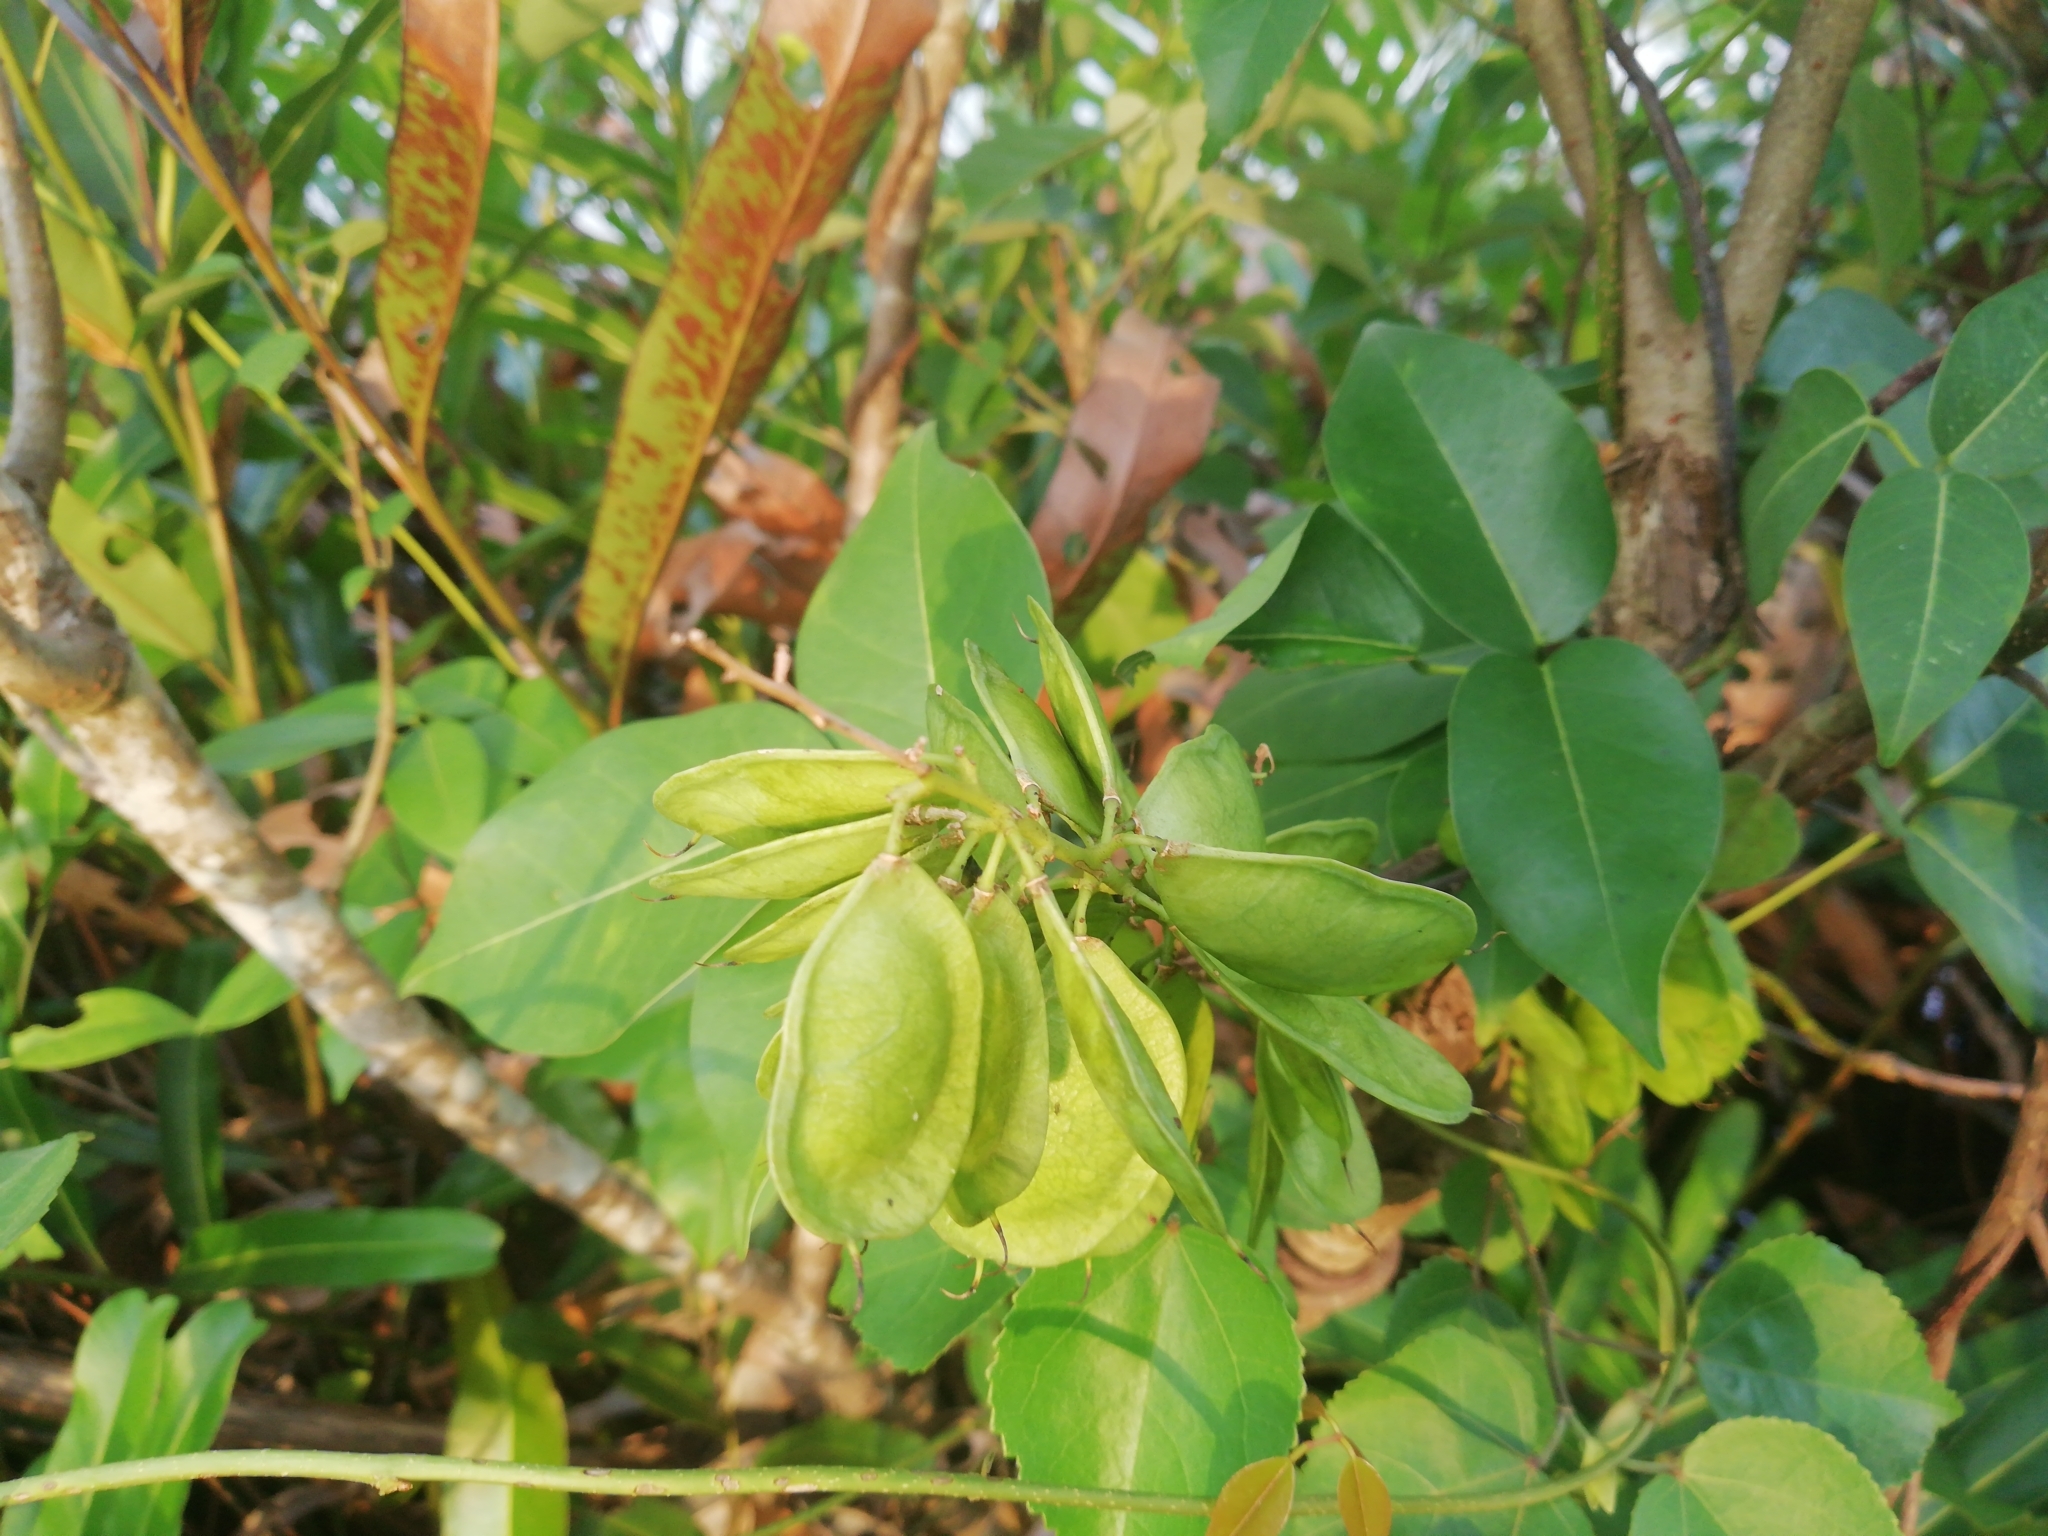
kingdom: Plantae
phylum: Tracheophyta
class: Magnoliopsida
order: Fabales
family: Fabaceae
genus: Derris
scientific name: Derris trifoliata
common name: Three-leaf derris
